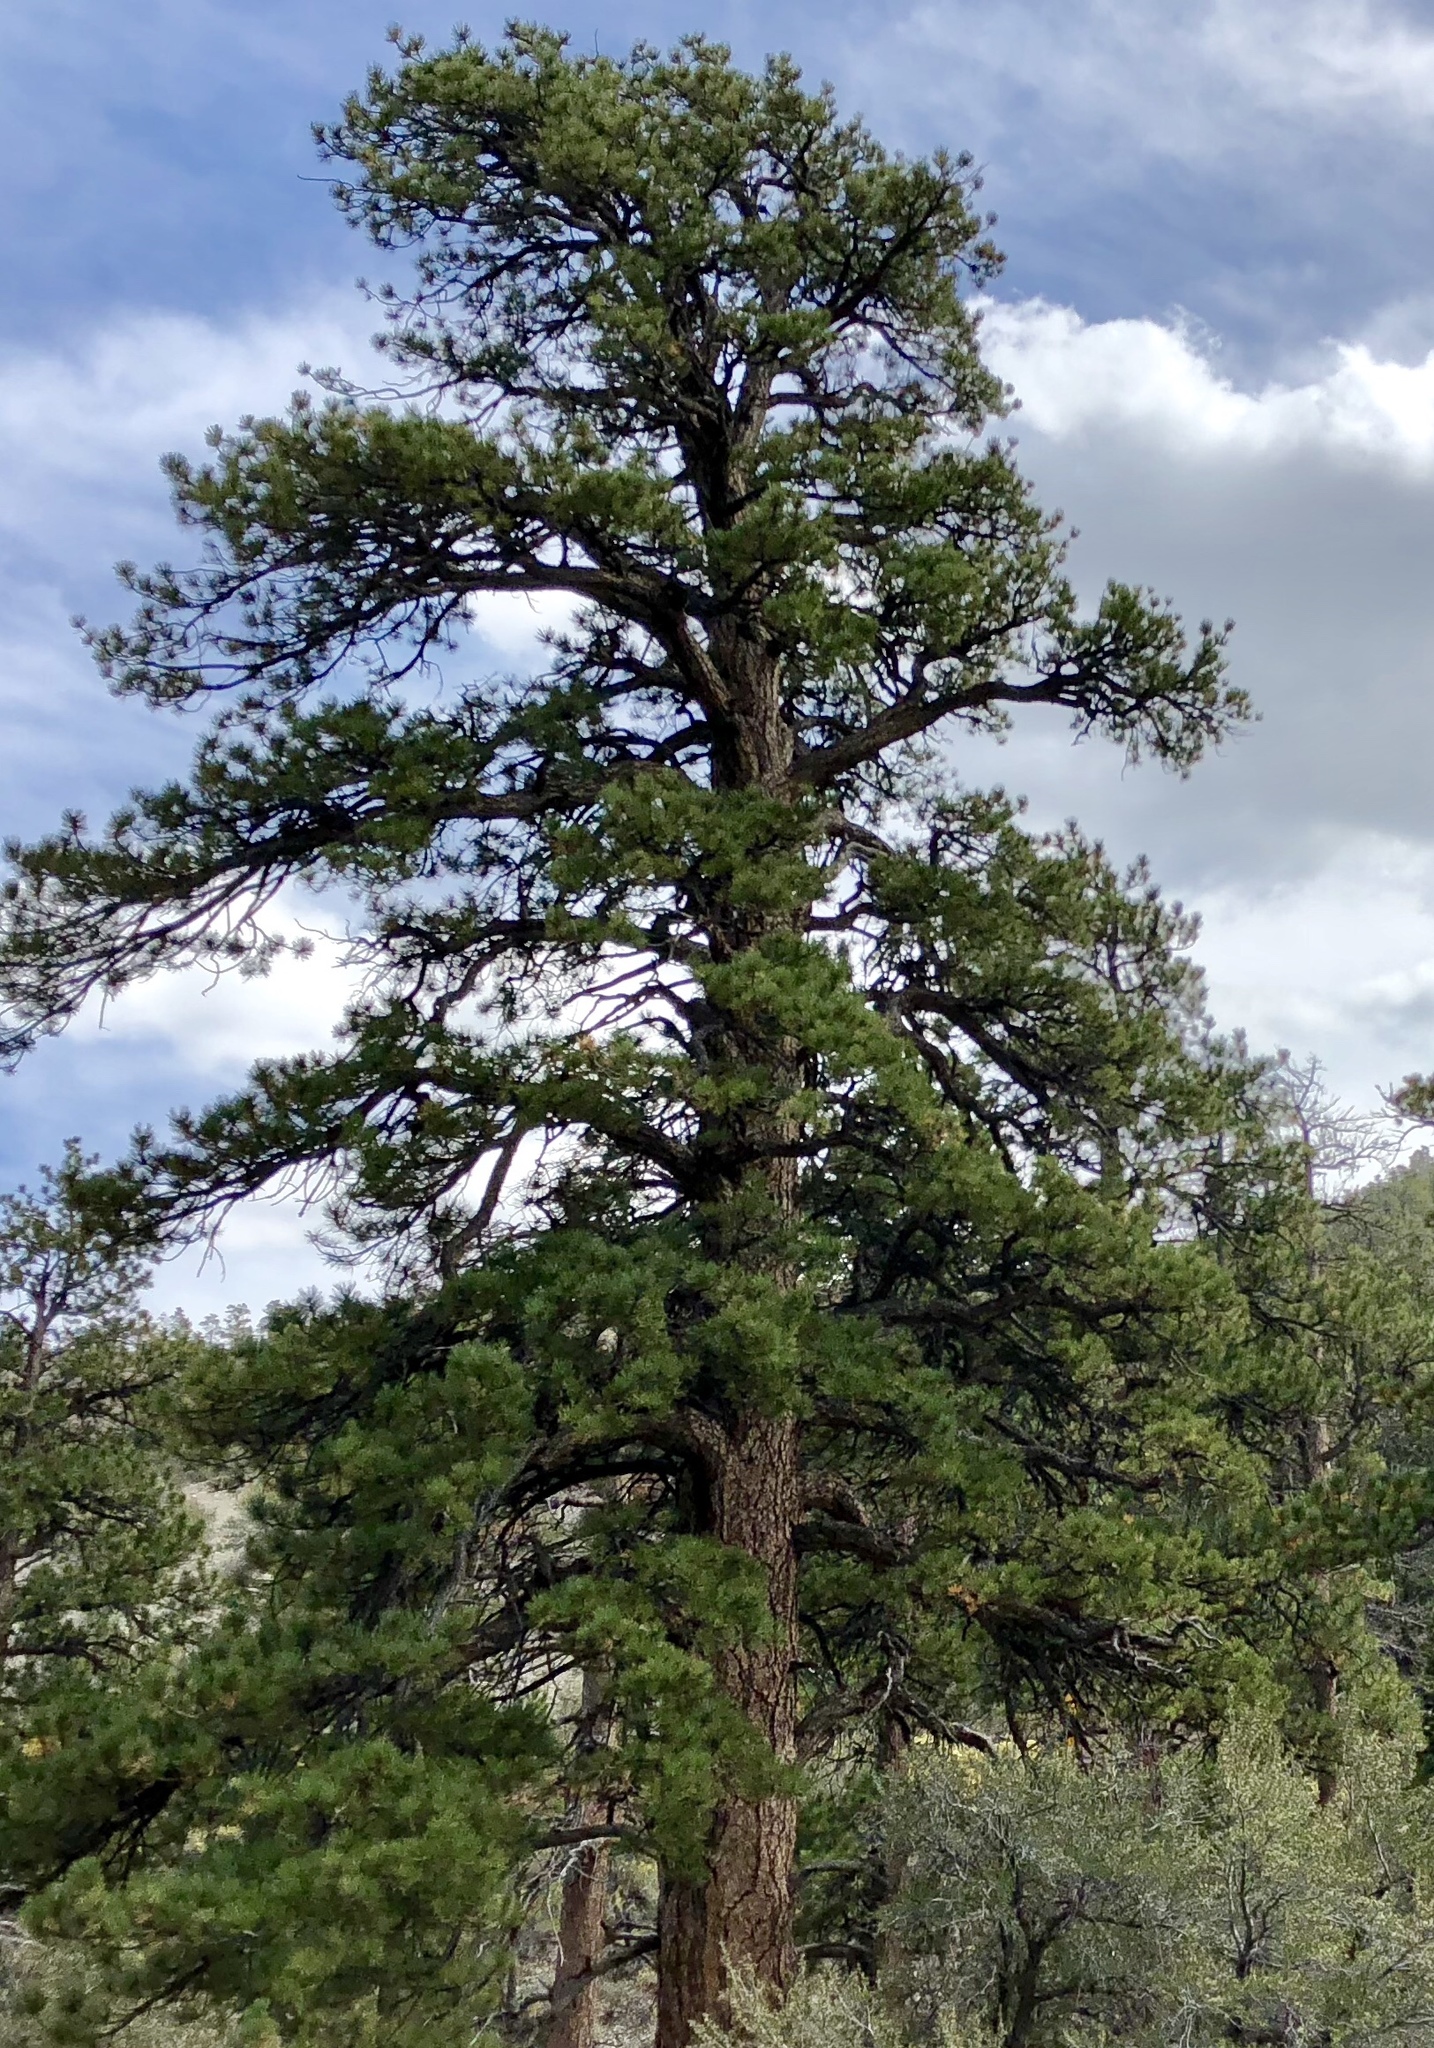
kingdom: Plantae
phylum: Tracheophyta
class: Pinopsida
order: Pinales
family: Pinaceae
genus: Pinus
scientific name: Pinus ponderosa
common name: Western yellow-pine
